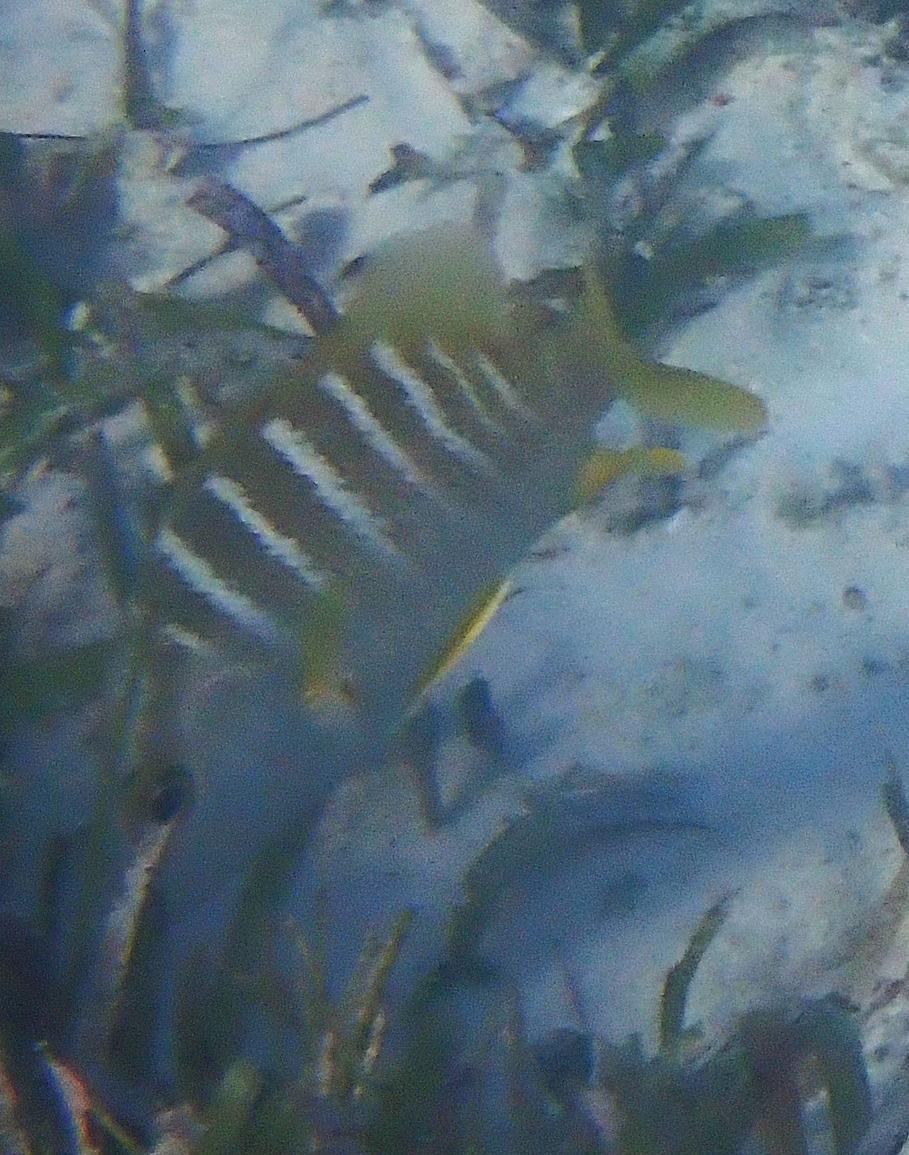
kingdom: Animalia
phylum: Chordata
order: Perciformes
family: Lutjanidae
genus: Lutjanus
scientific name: Lutjanus apodus
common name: Schoolmaster
